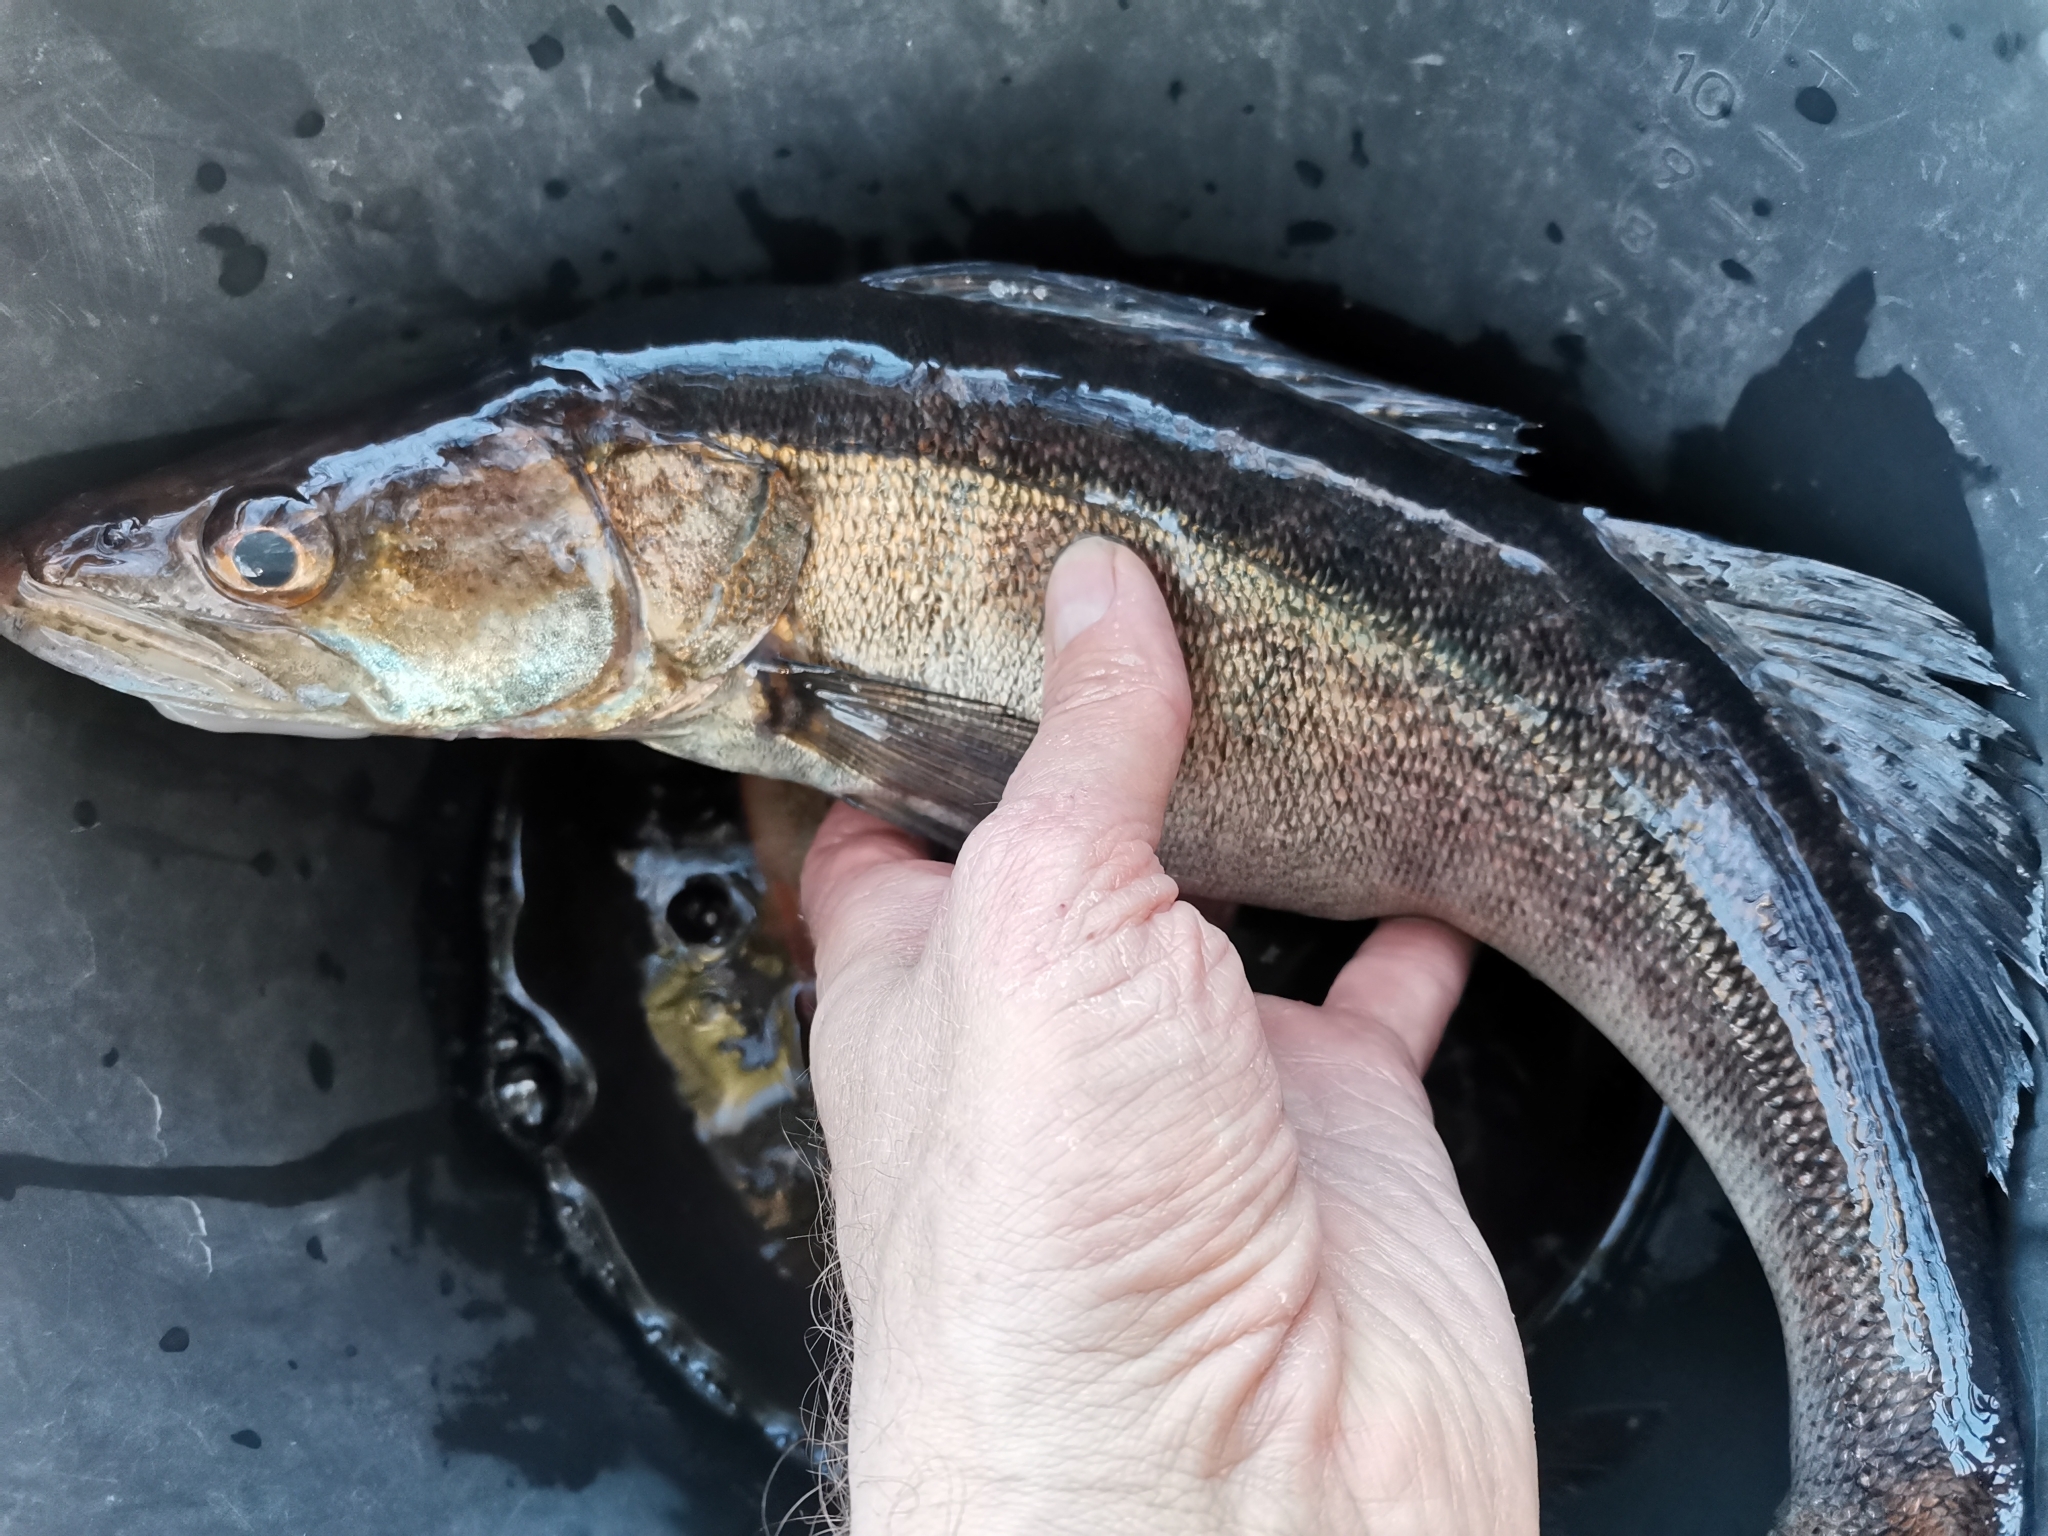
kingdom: Animalia
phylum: Chordata
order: Perciformes
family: Percidae
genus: Sander
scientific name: Sander lucioperca
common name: Pikeperch
